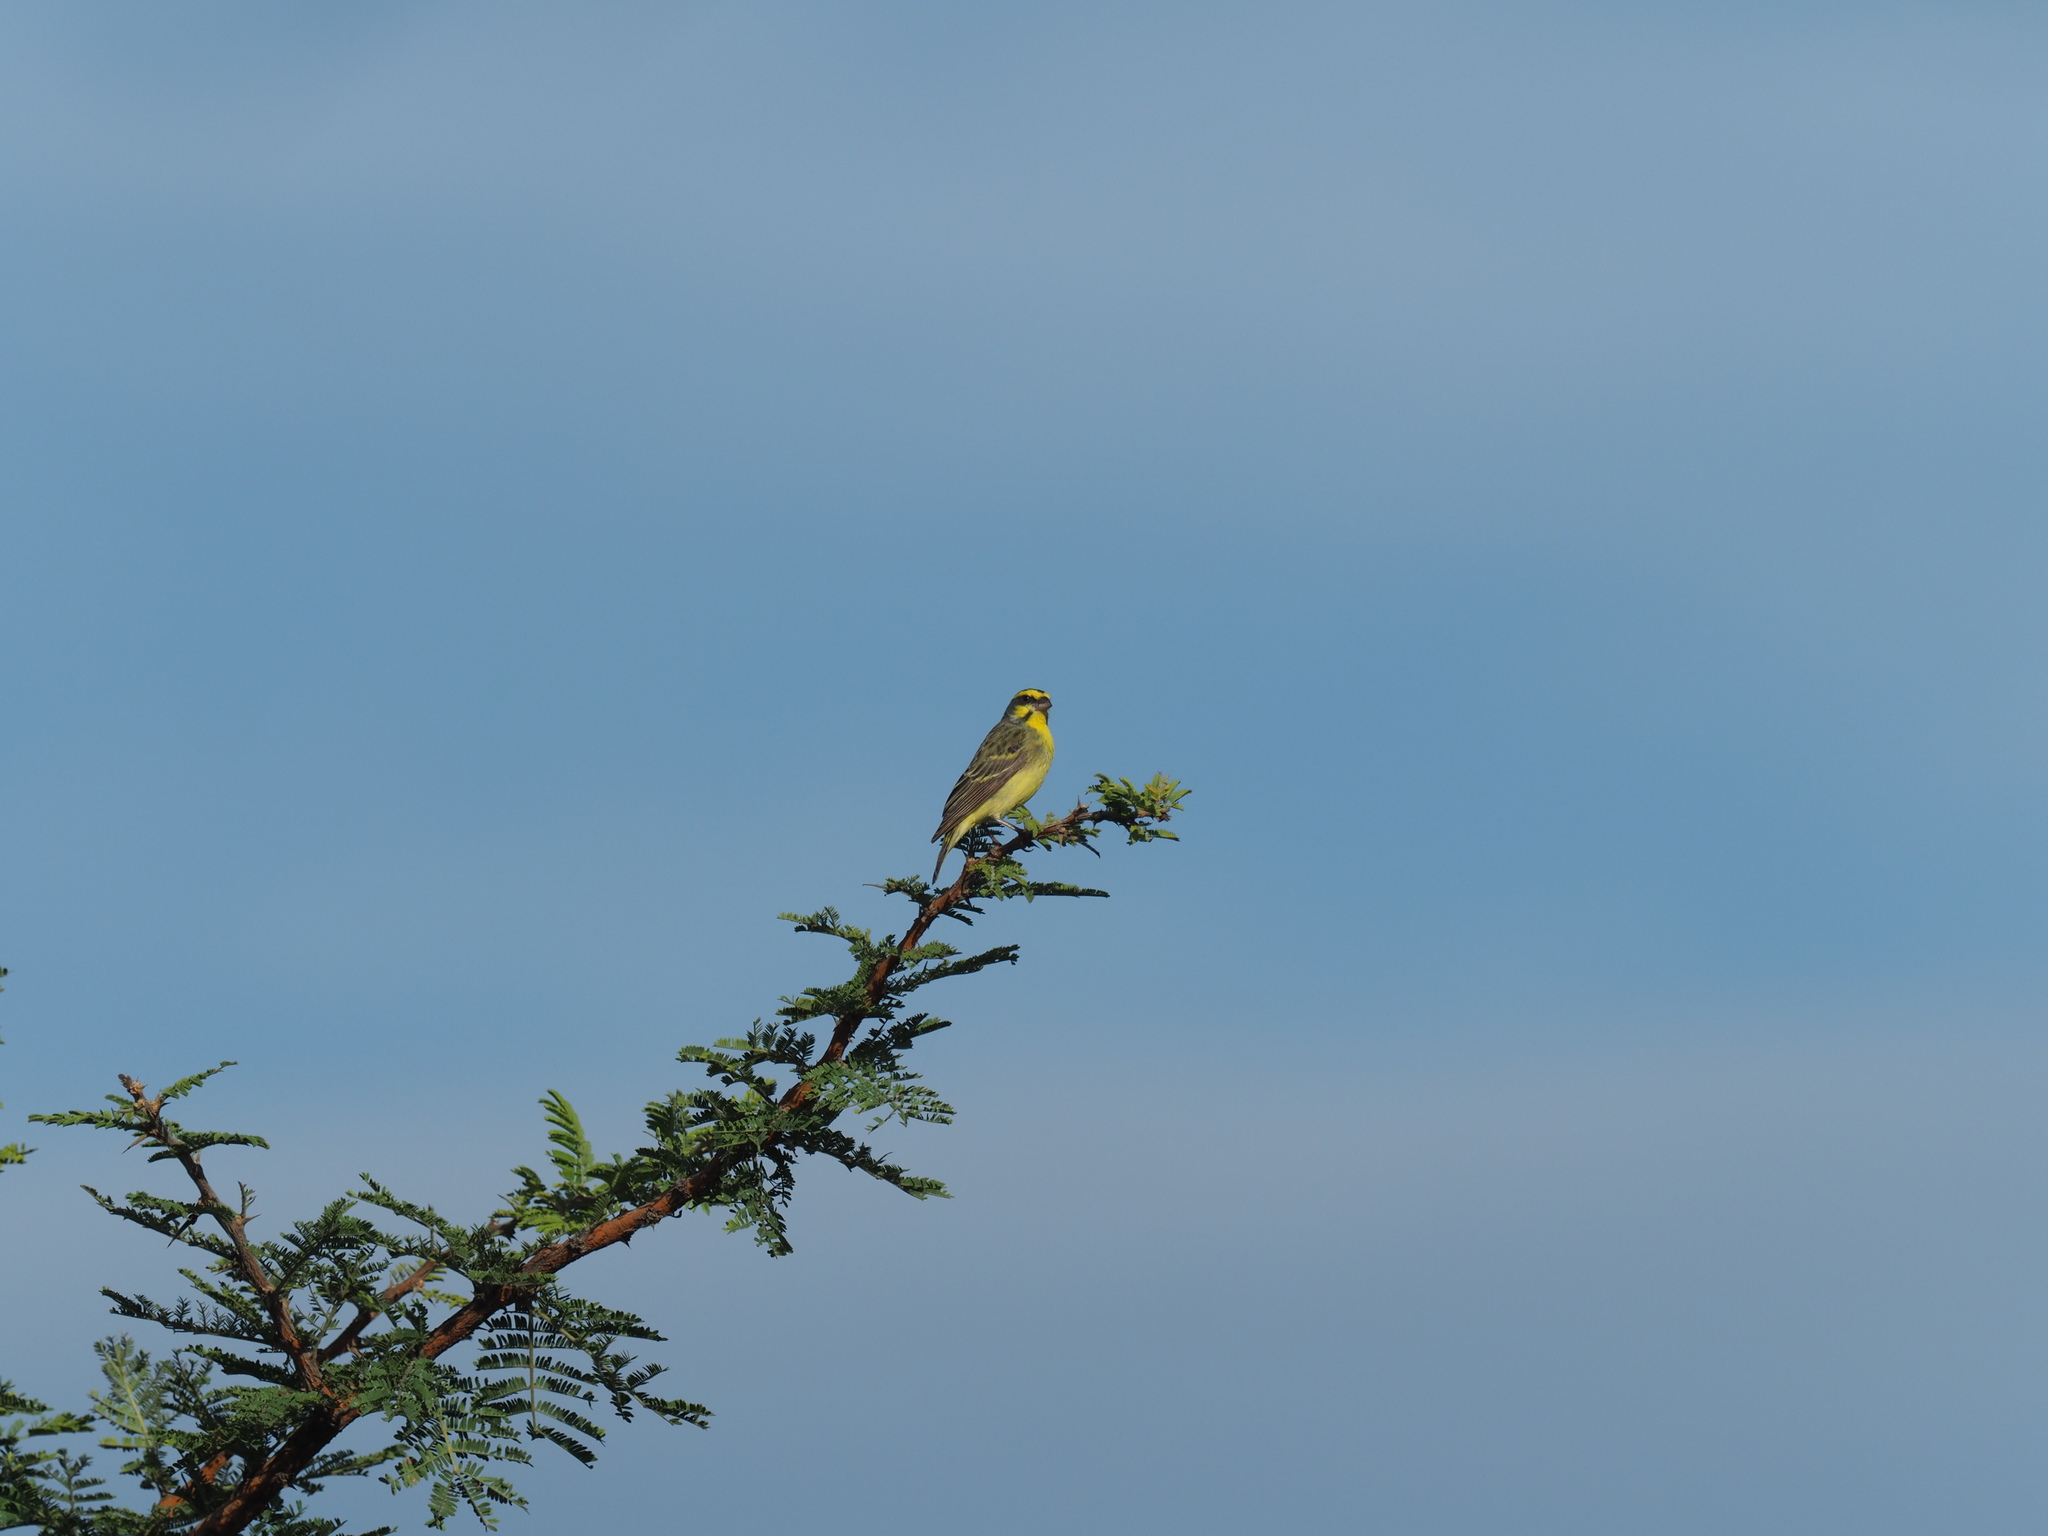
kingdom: Animalia
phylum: Chordata
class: Aves
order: Passeriformes
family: Fringillidae
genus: Crithagra
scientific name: Crithagra mozambica
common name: Yellow-fronted canary
